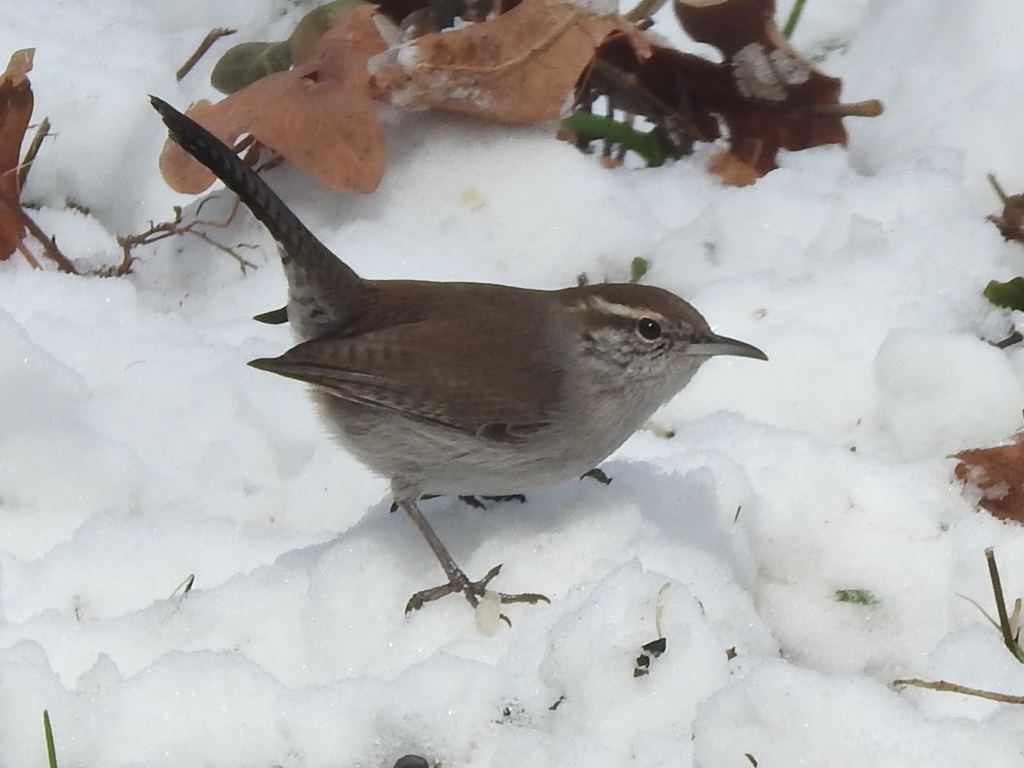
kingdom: Animalia
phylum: Chordata
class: Aves
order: Passeriformes
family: Troglodytidae
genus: Thryomanes
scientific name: Thryomanes bewickii
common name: Bewick's wren
